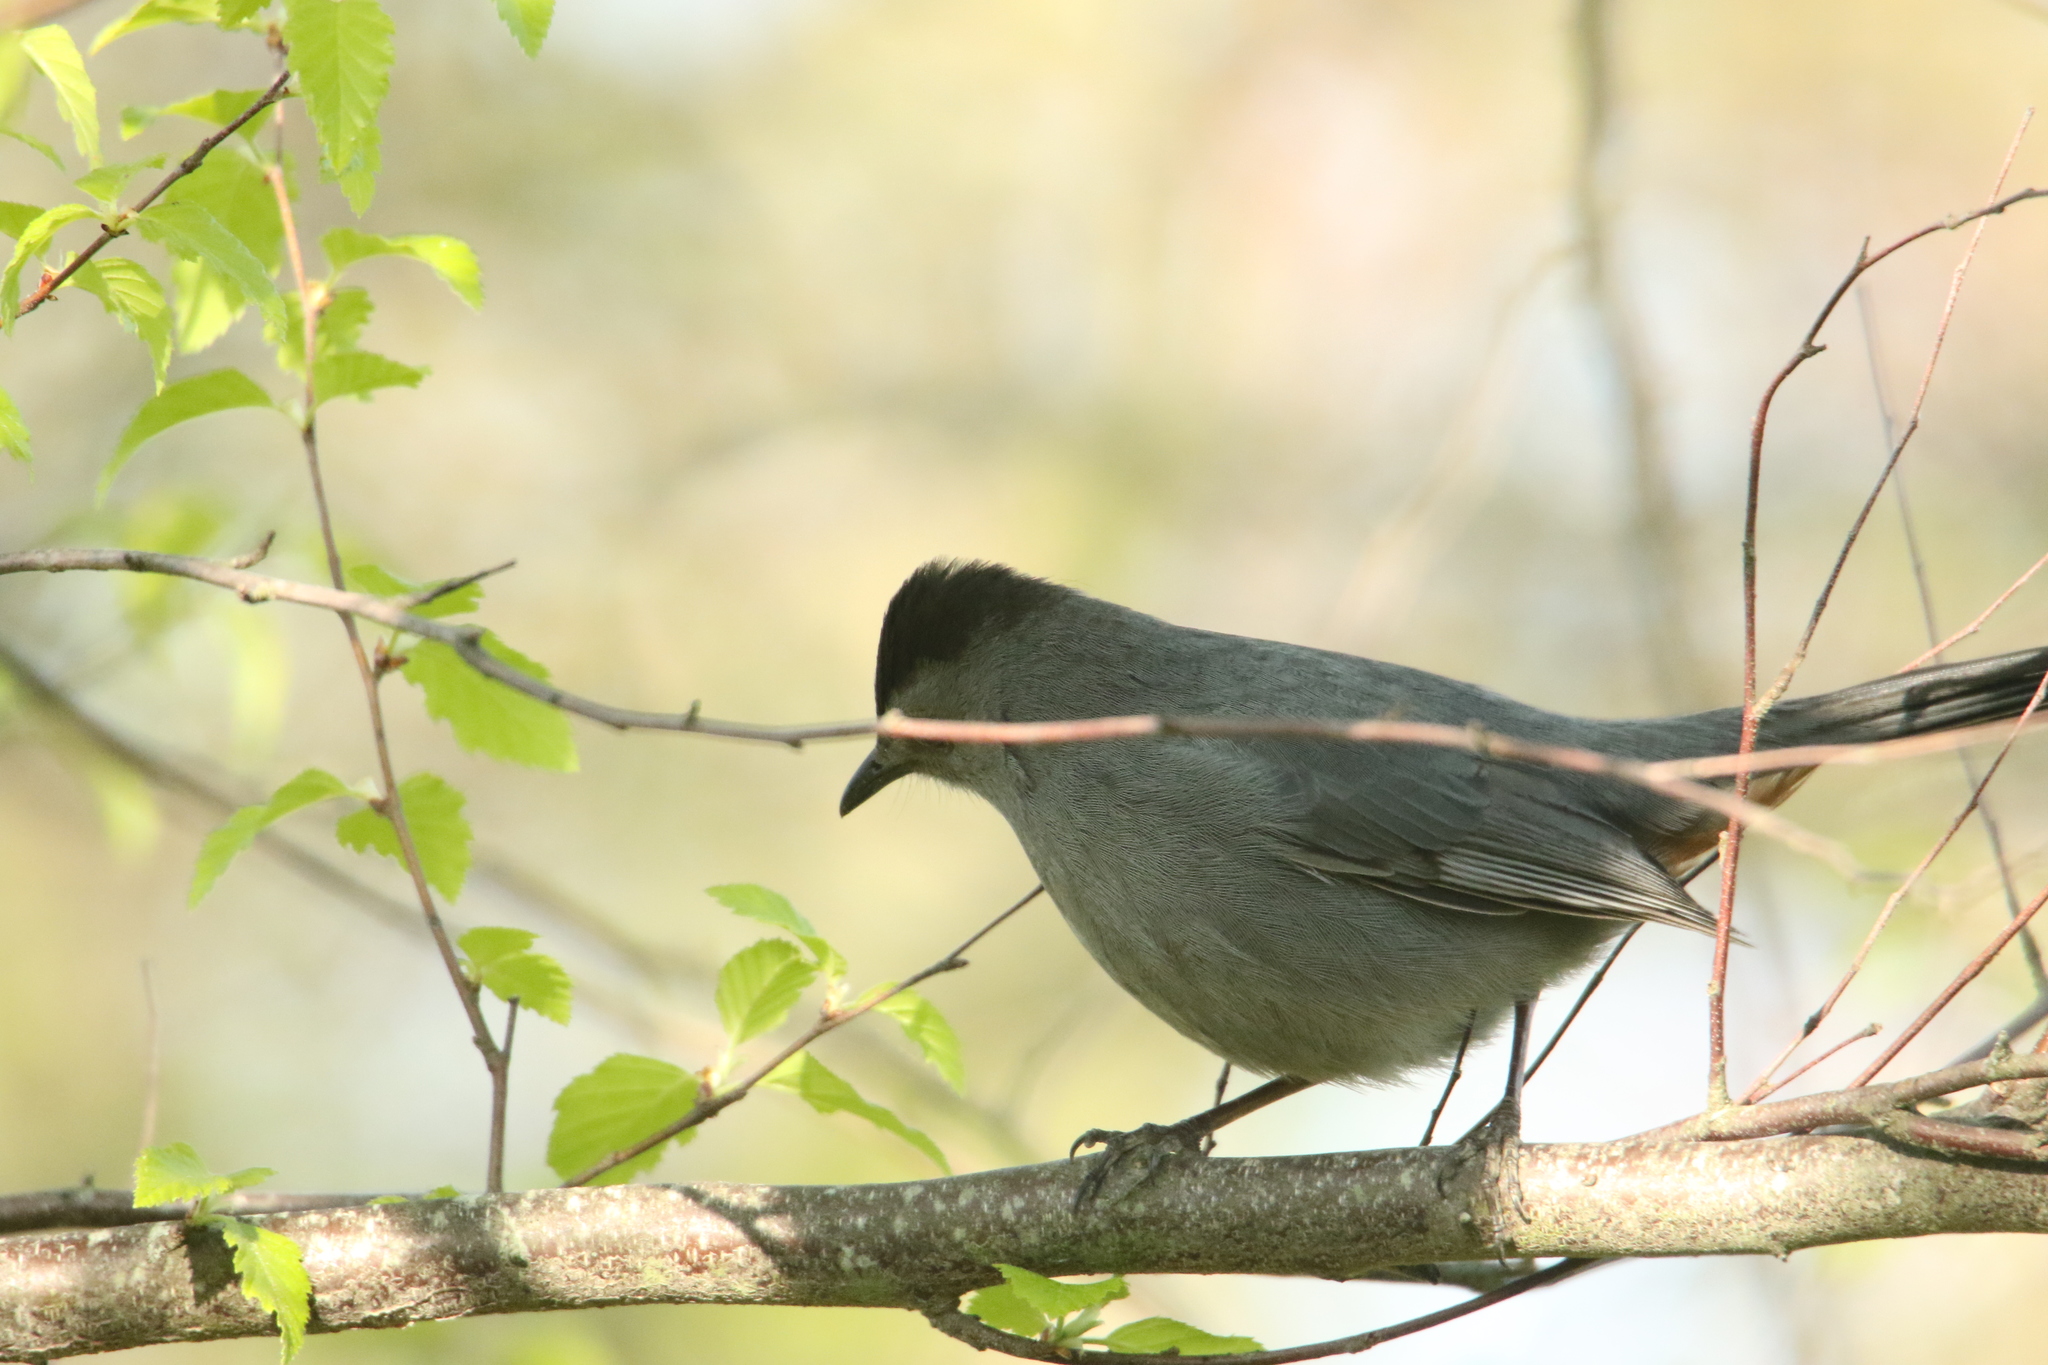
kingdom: Animalia
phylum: Chordata
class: Aves
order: Passeriformes
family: Mimidae
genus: Dumetella
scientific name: Dumetella carolinensis
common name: Gray catbird
